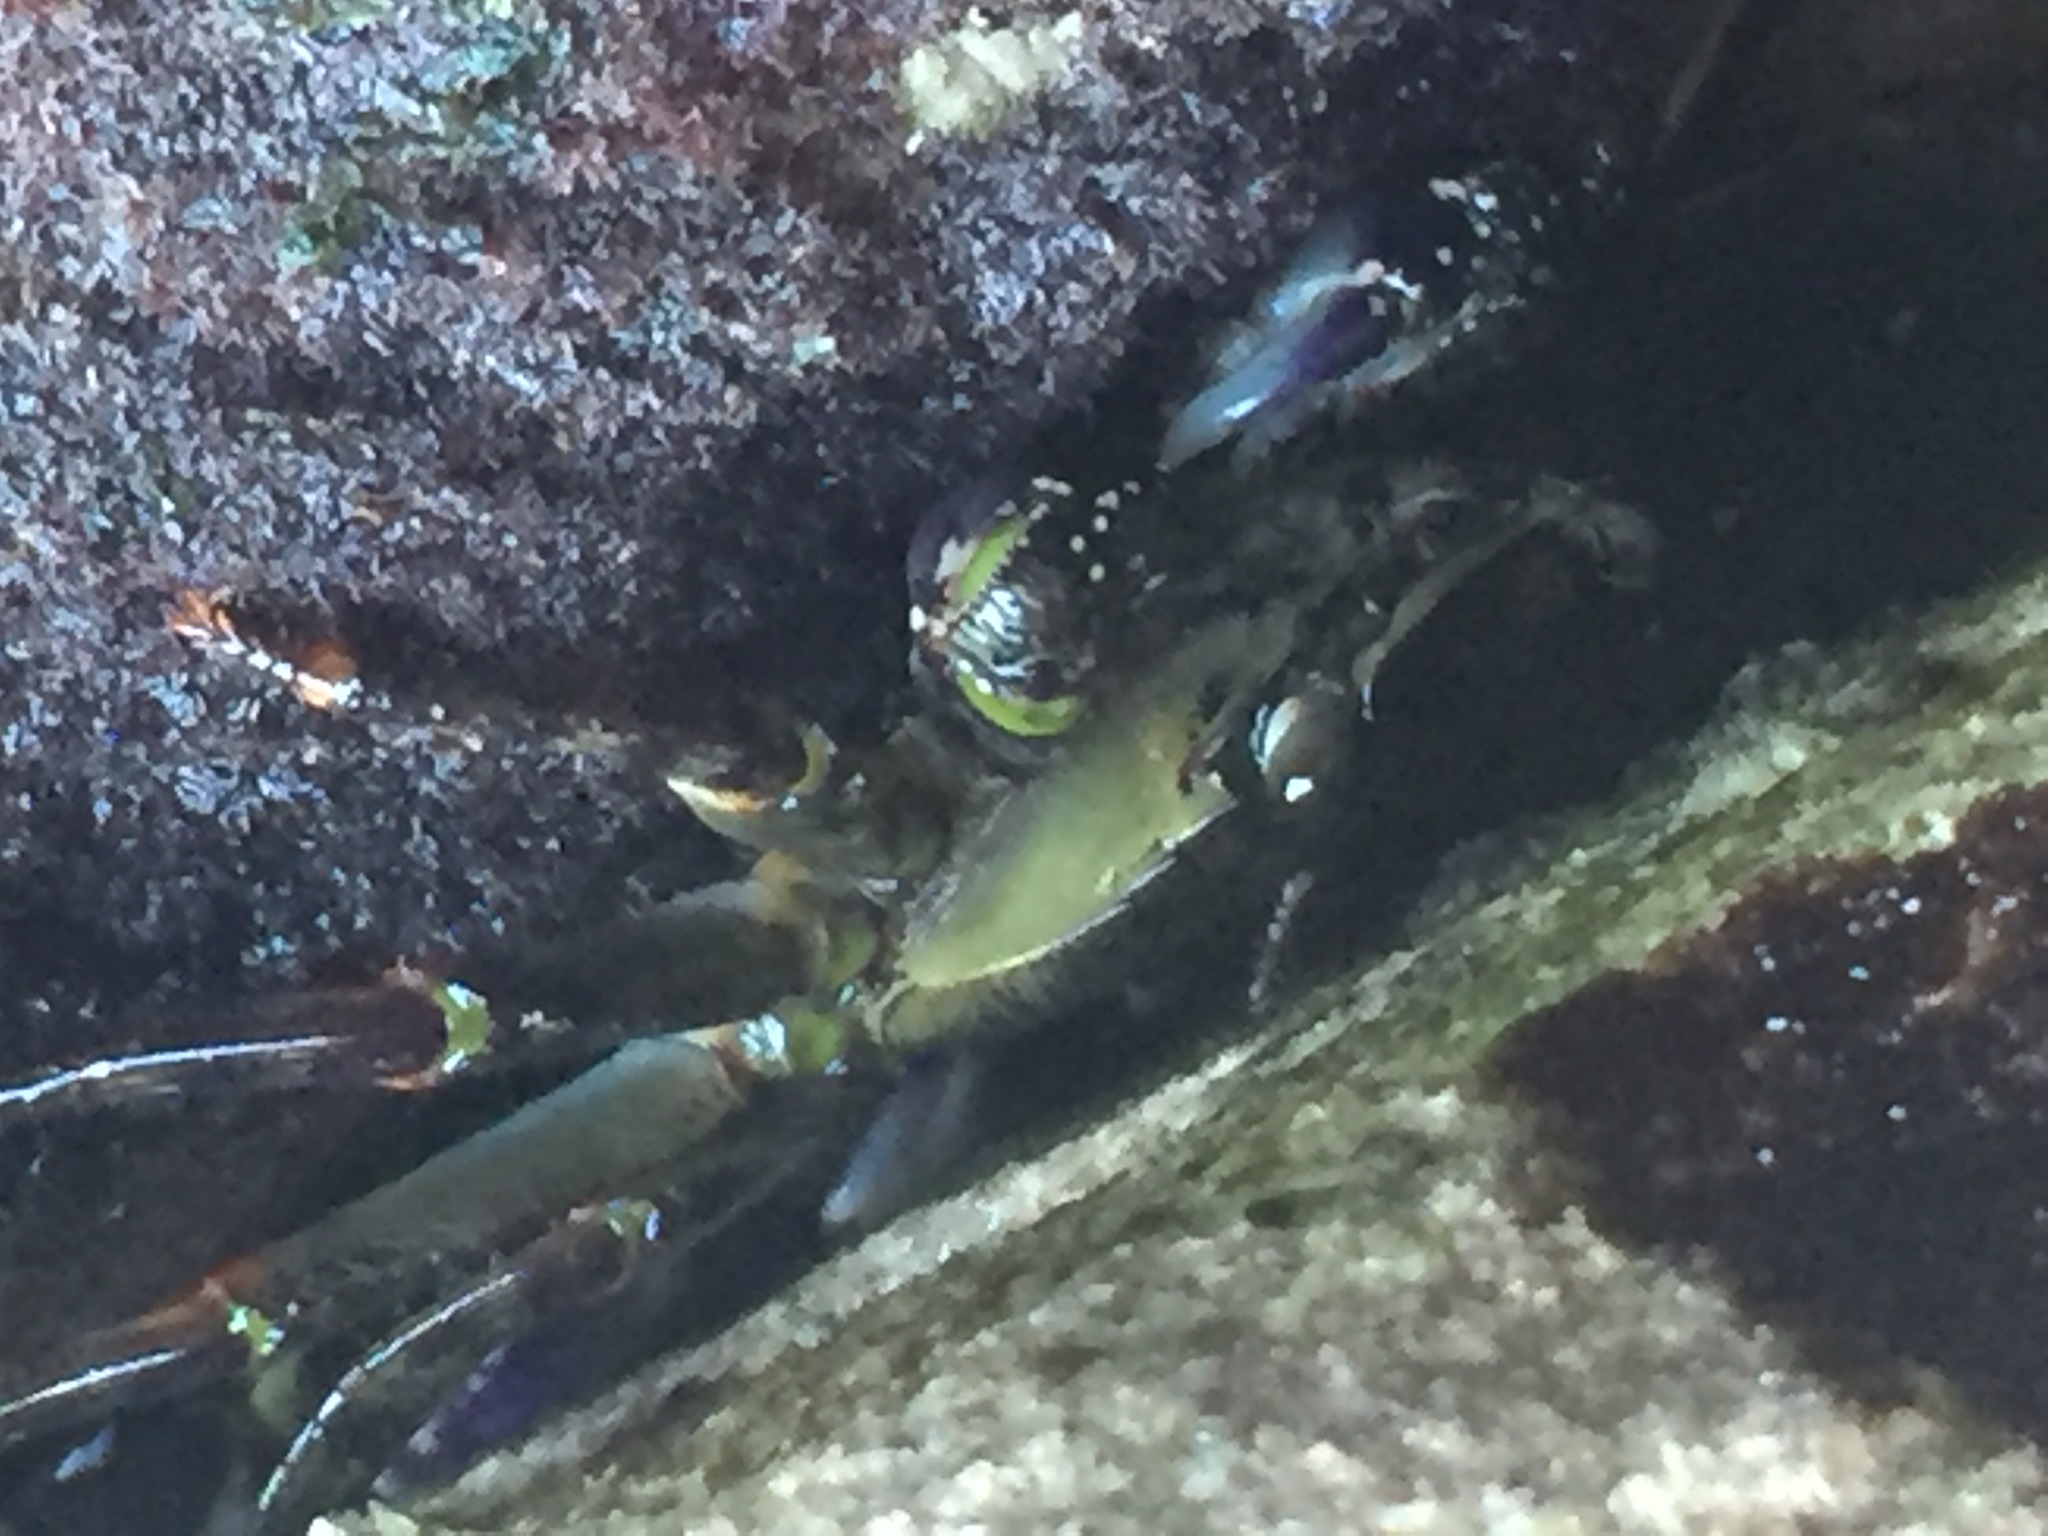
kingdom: Animalia
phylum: Arthropoda
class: Malacostraca
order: Decapoda
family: Grapsidae
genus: Leptograpsus
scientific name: Leptograpsus variegatus
